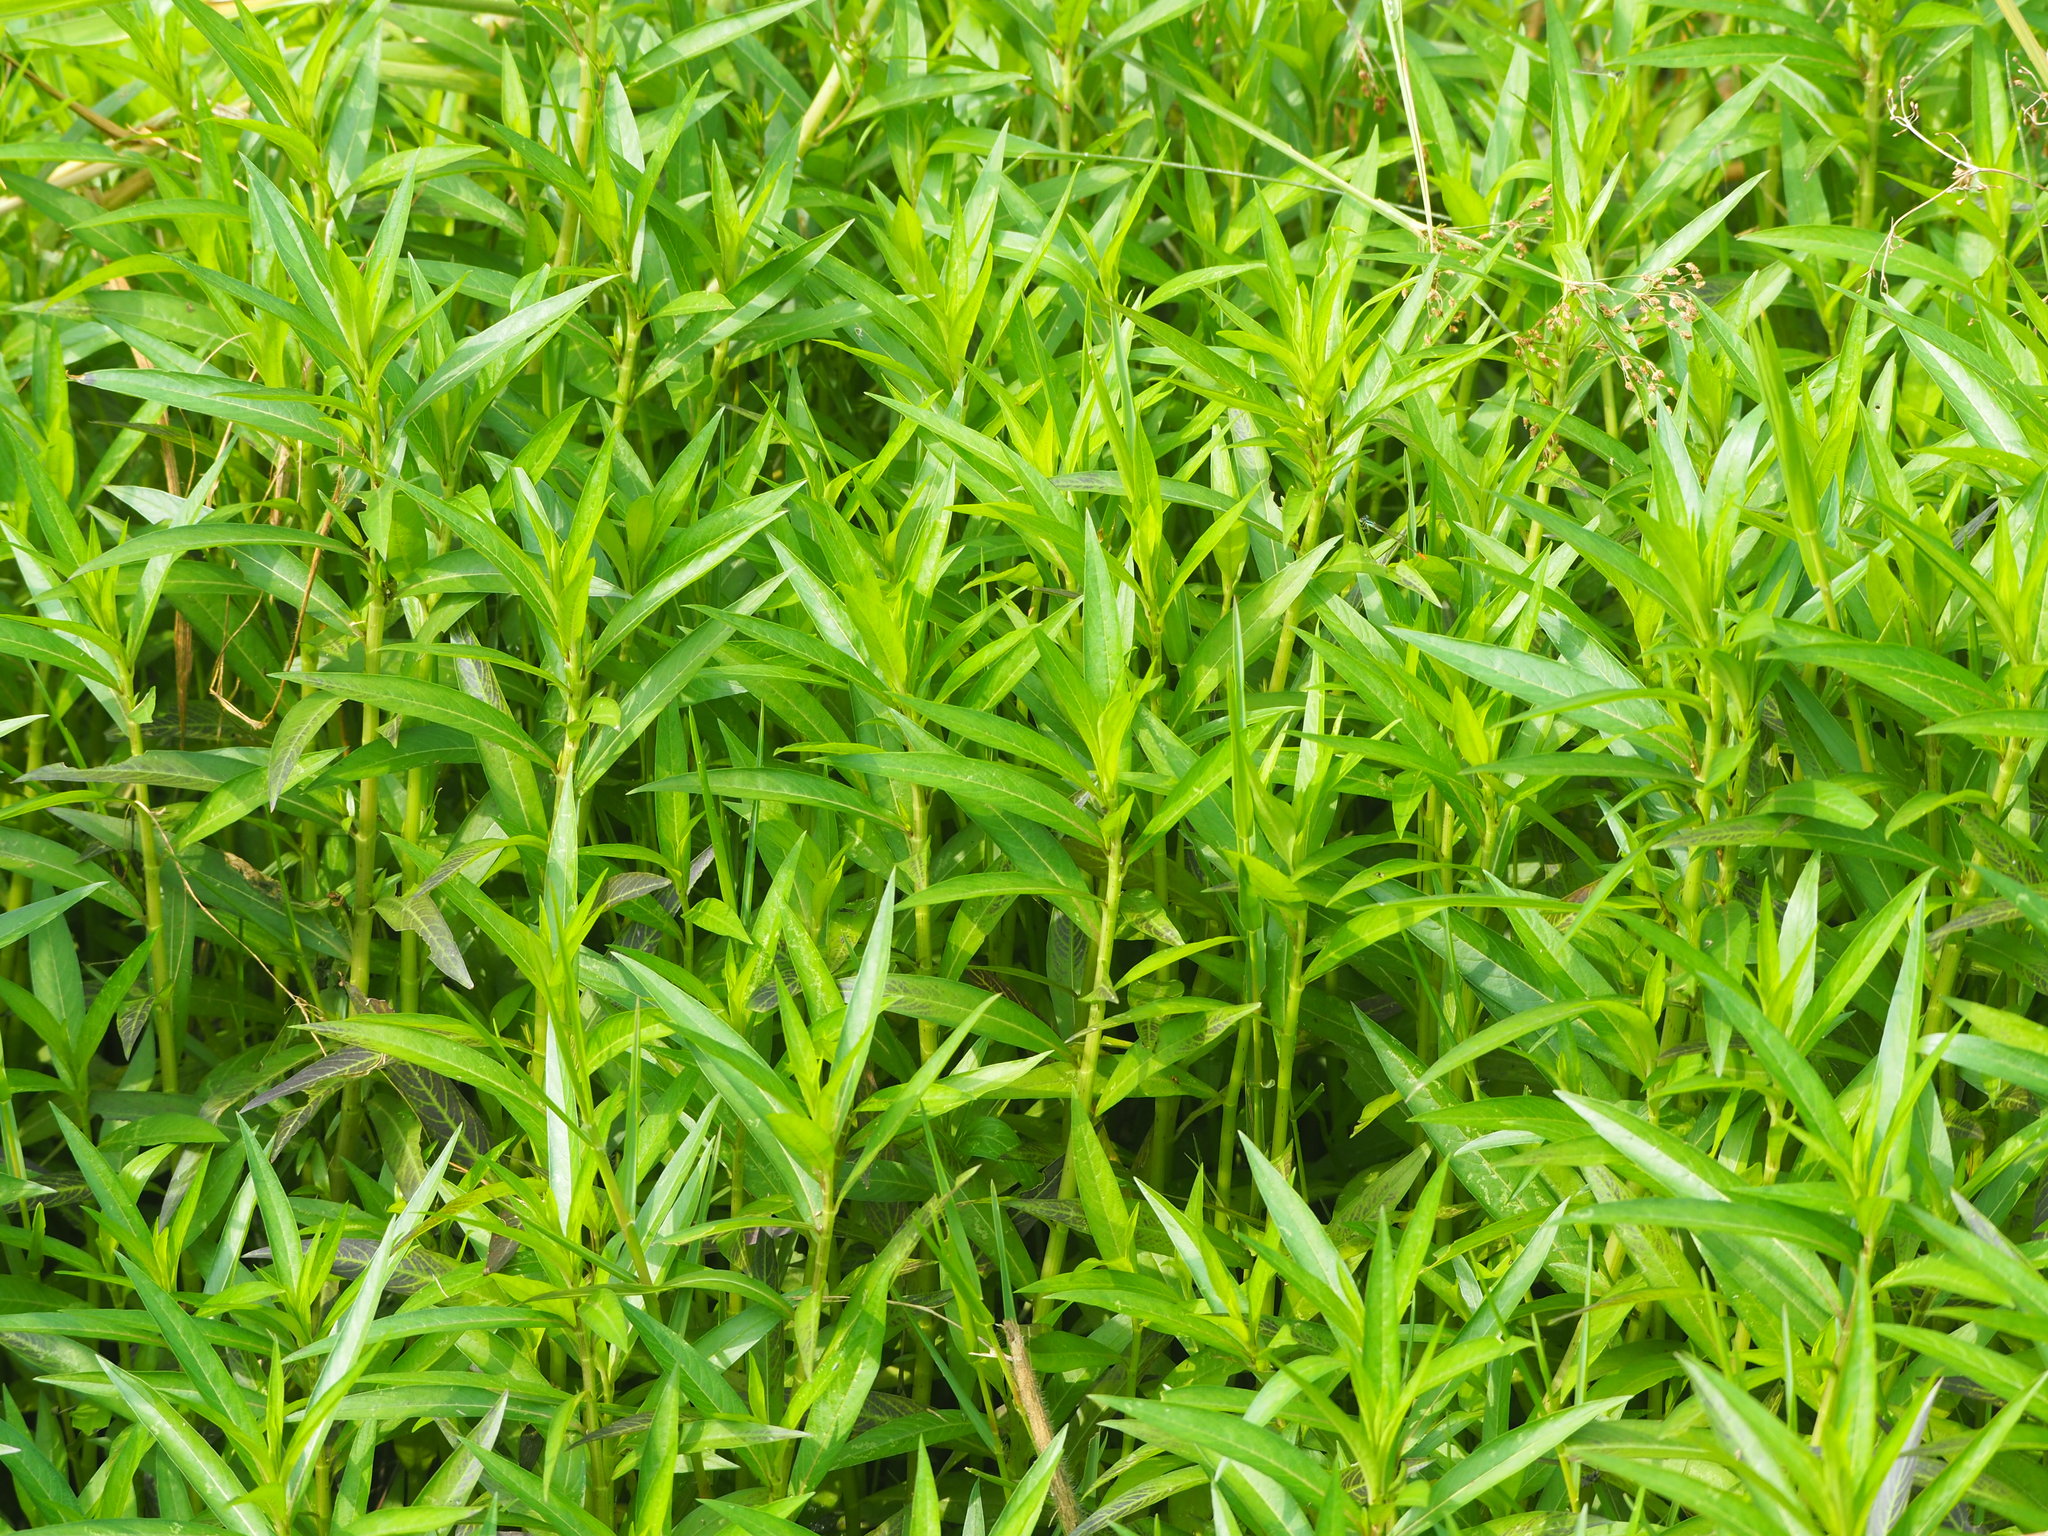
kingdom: Plantae
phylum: Tracheophyta
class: Magnoliopsida
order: Solanales
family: Hydroleaceae
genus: Hydrolea
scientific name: Hydrolea zeylanica
